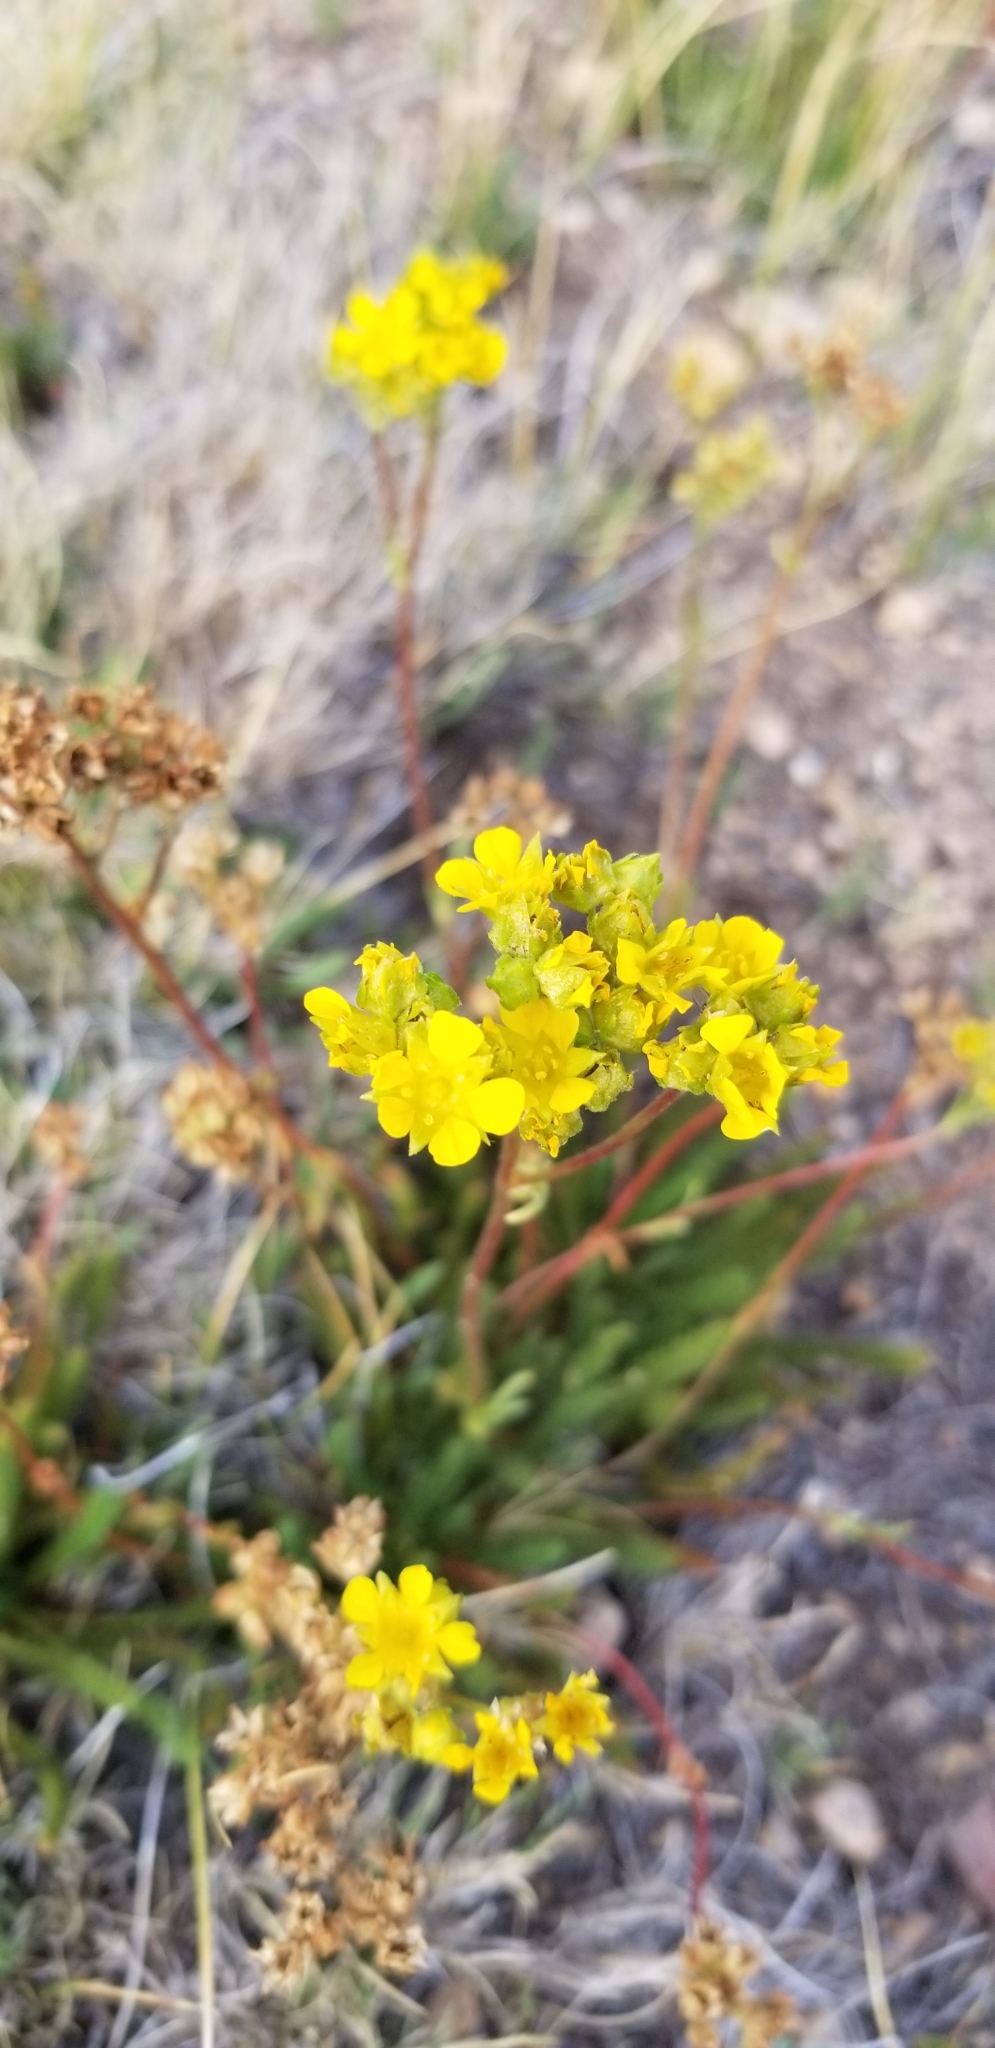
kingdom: Plantae
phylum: Tracheophyta
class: Magnoliopsida
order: Rosales
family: Rosaceae
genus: Potentilla
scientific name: Potentilla lycopodioides
